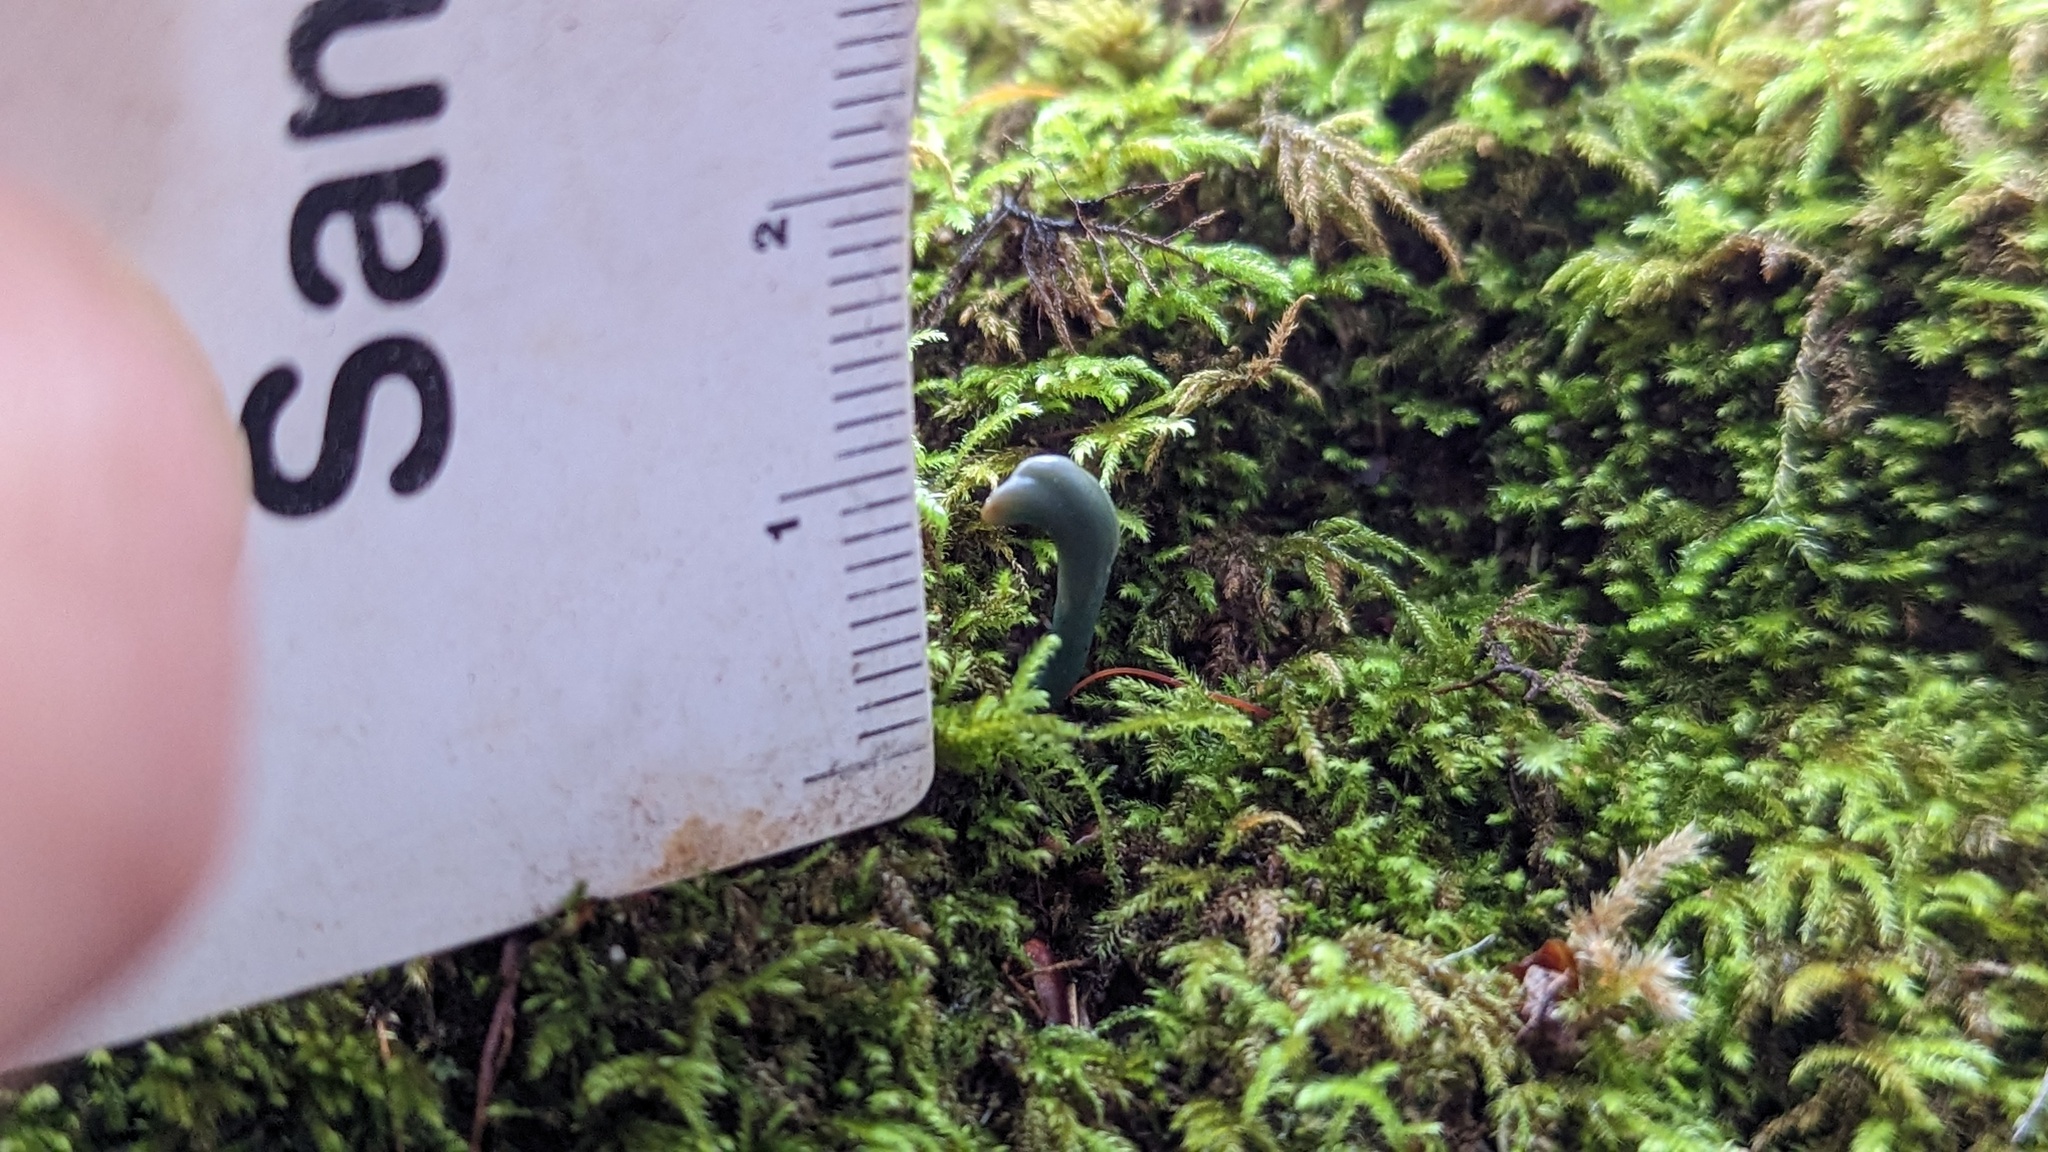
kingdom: Fungi
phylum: Ascomycota
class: Leotiomycetes
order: Leotiales
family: Leotiaceae
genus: Microglossum
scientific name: Microglossum viride
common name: Green earthtongue
